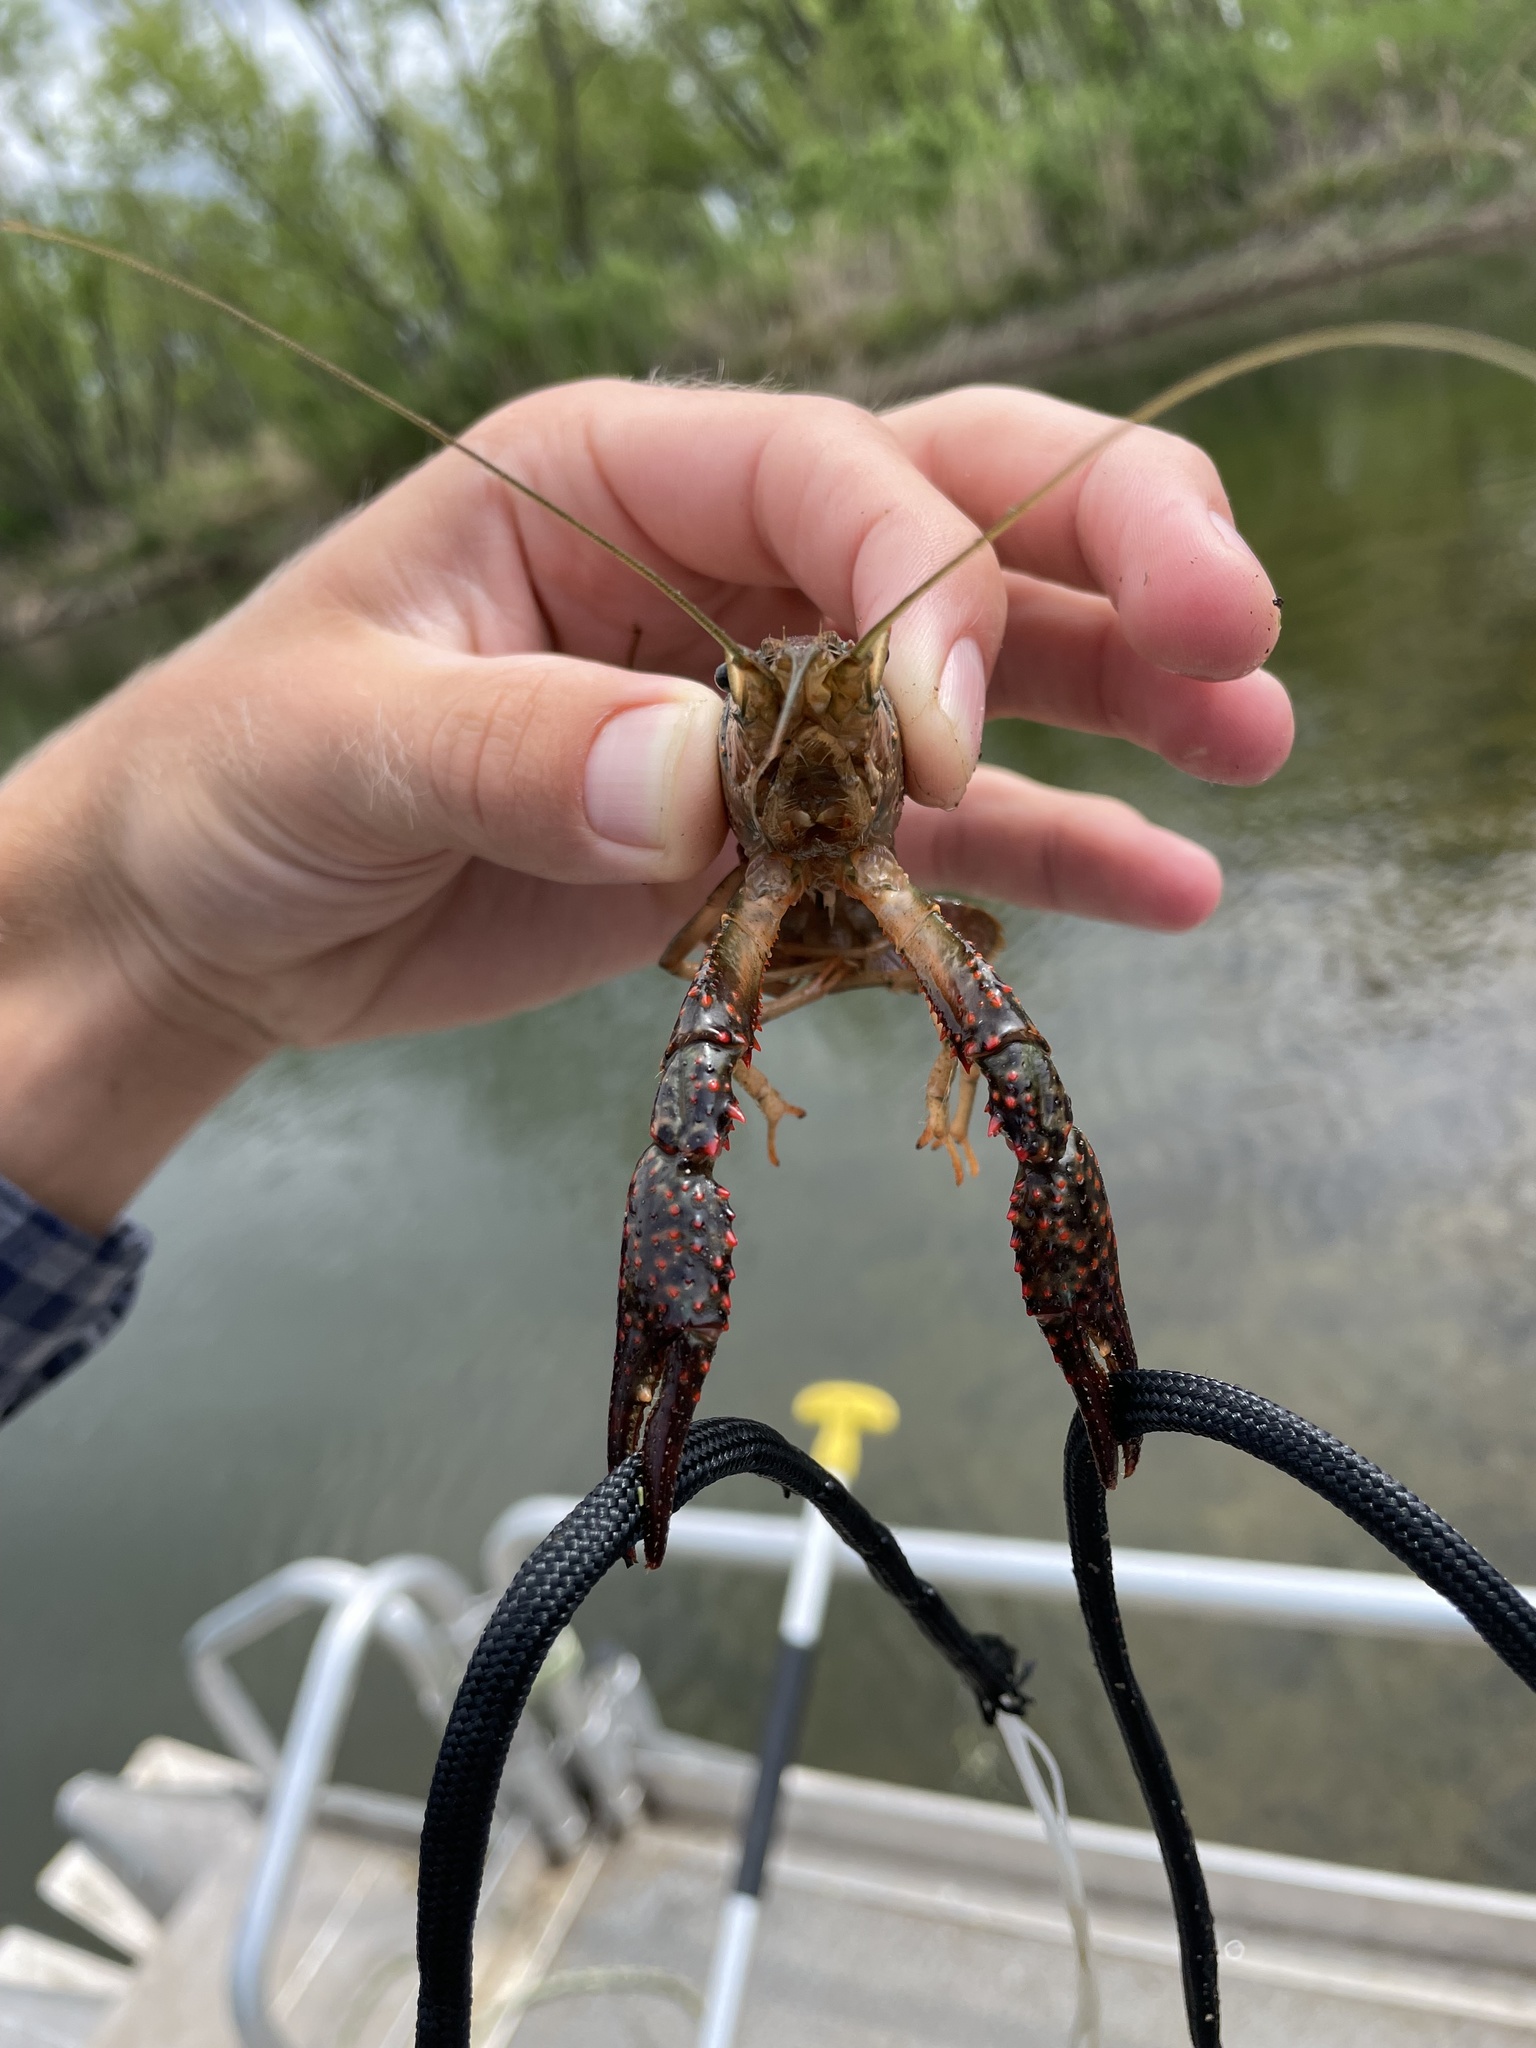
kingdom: Animalia
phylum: Arthropoda
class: Malacostraca
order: Decapoda
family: Cambaridae
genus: Procambarus
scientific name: Procambarus clarkii
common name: Red swamp crayfish
